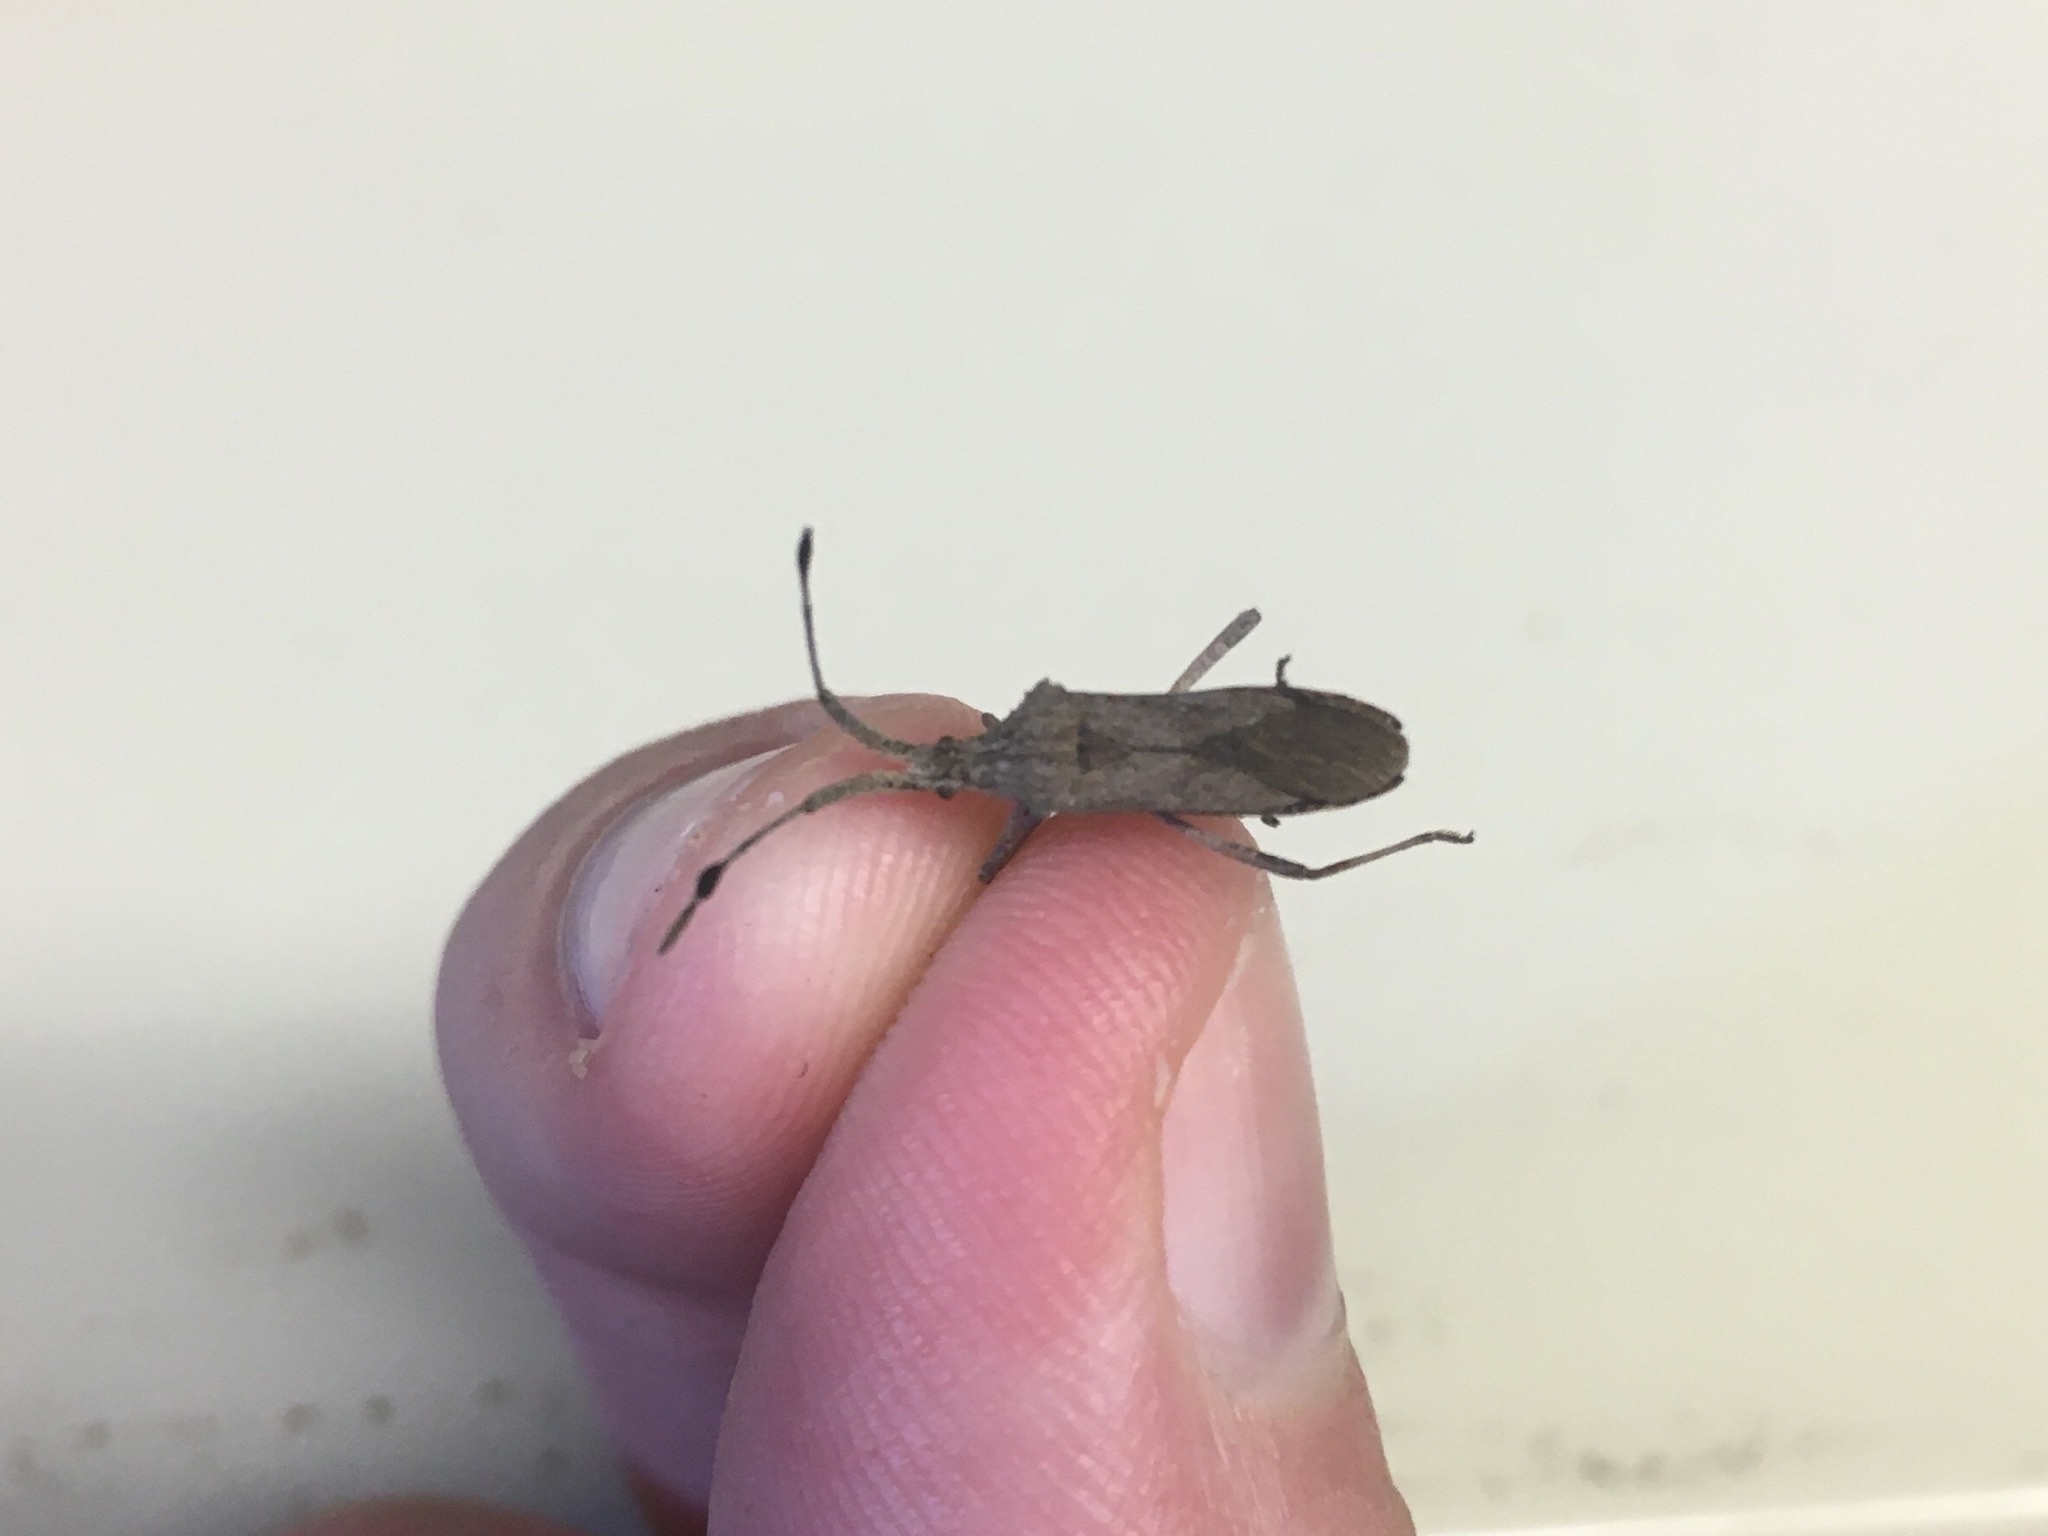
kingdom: Animalia
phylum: Arthropoda
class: Insecta
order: Hemiptera
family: Coreidae
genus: Chariesterus
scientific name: Chariesterus antennator
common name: Flat horned coreid
